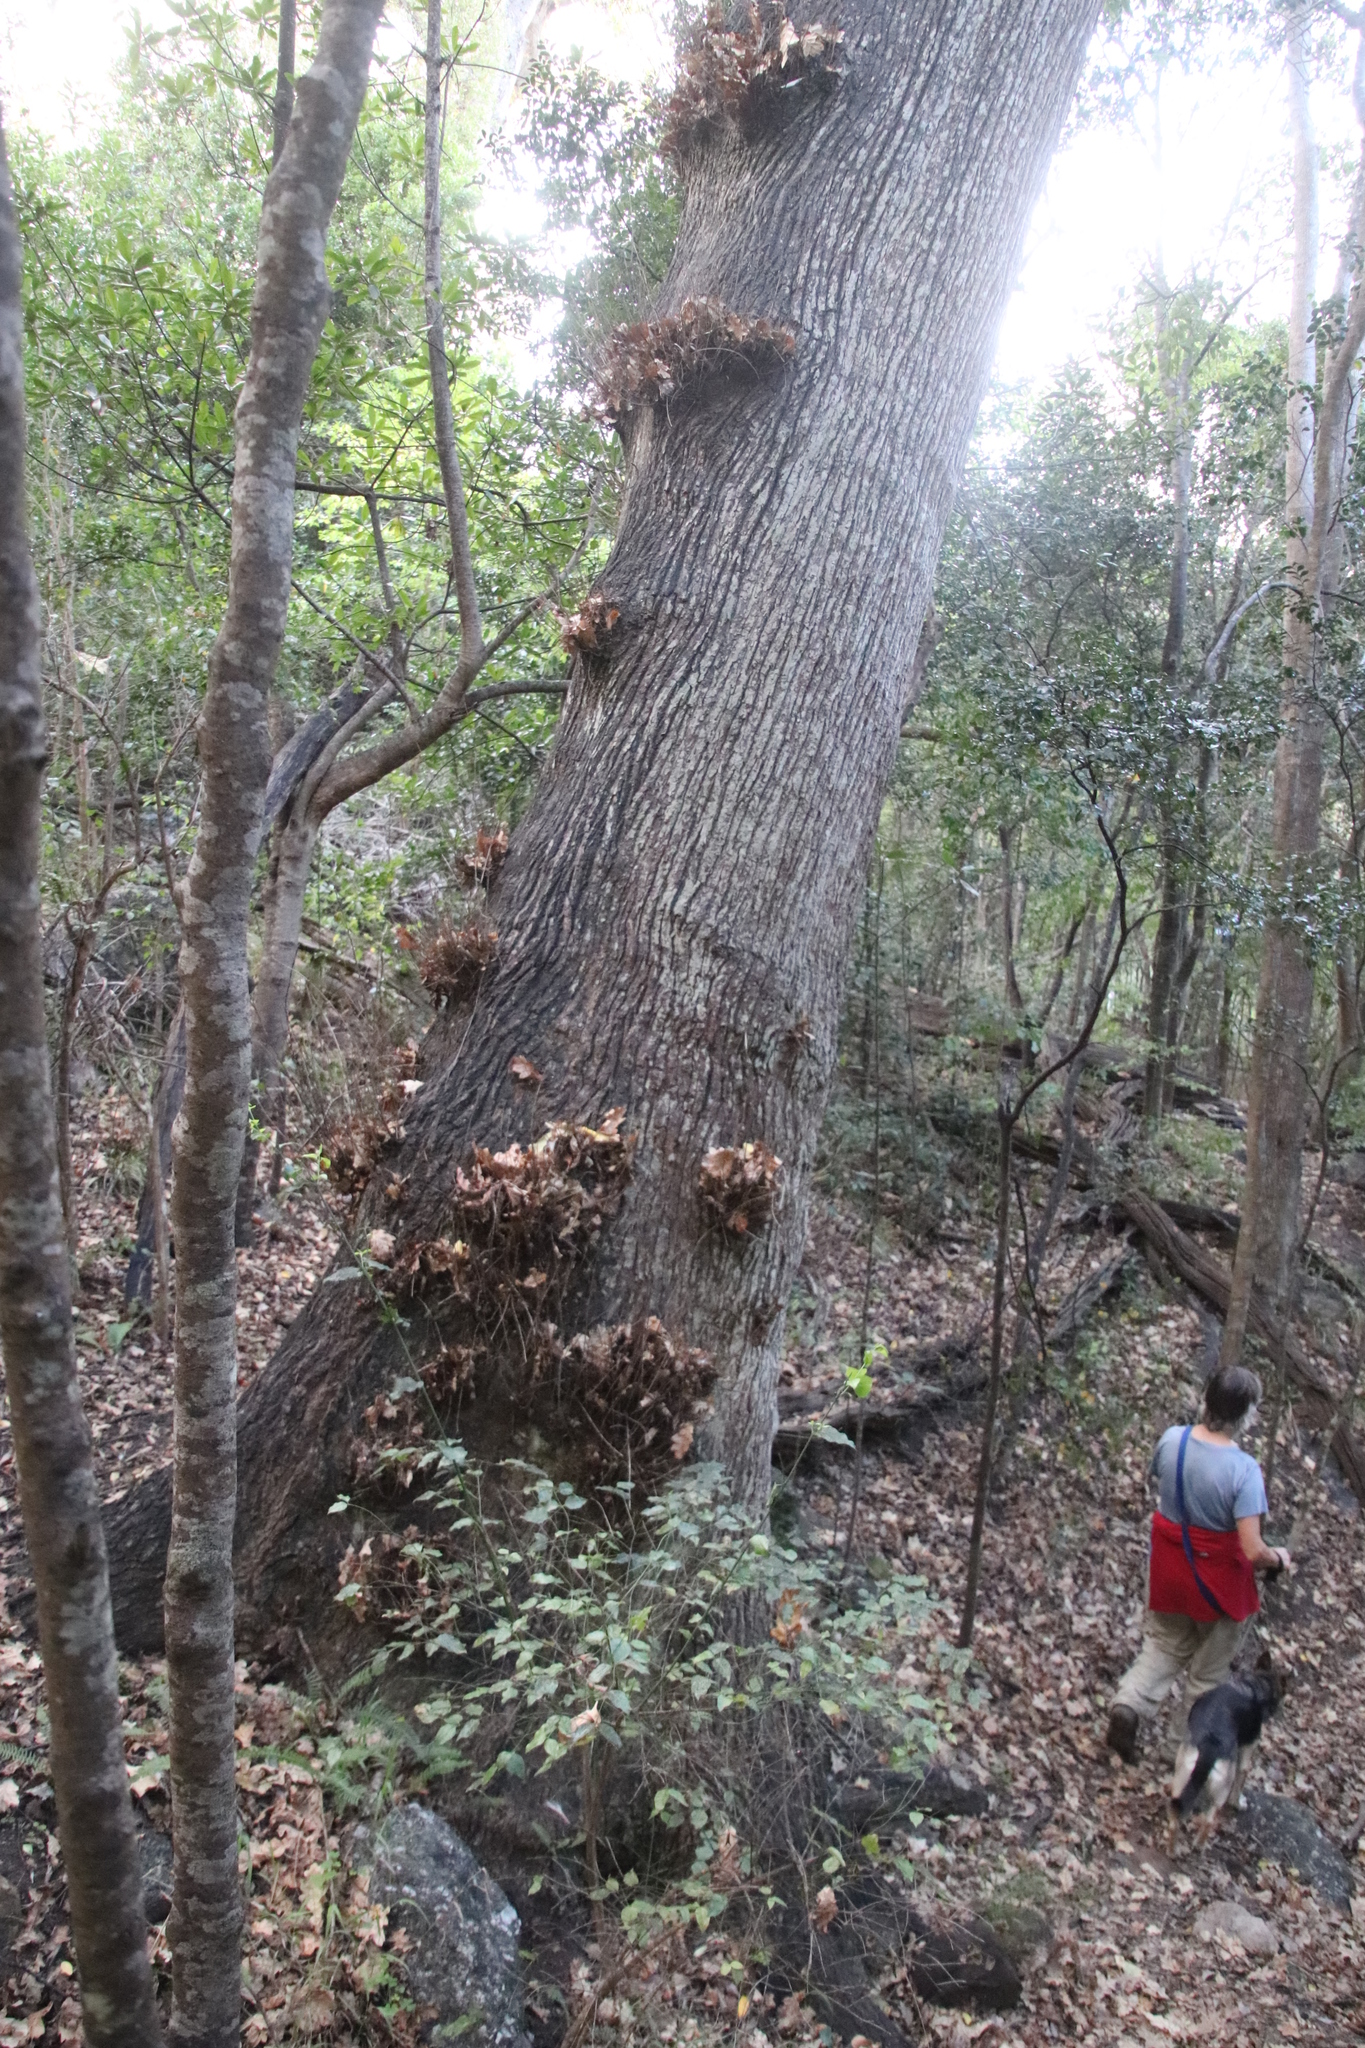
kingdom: Plantae
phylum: Tracheophyta
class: Magnoliopsida
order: Fagales
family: Fagaceae
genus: Quercus
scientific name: Quercus robur
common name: Pedunculate oak
